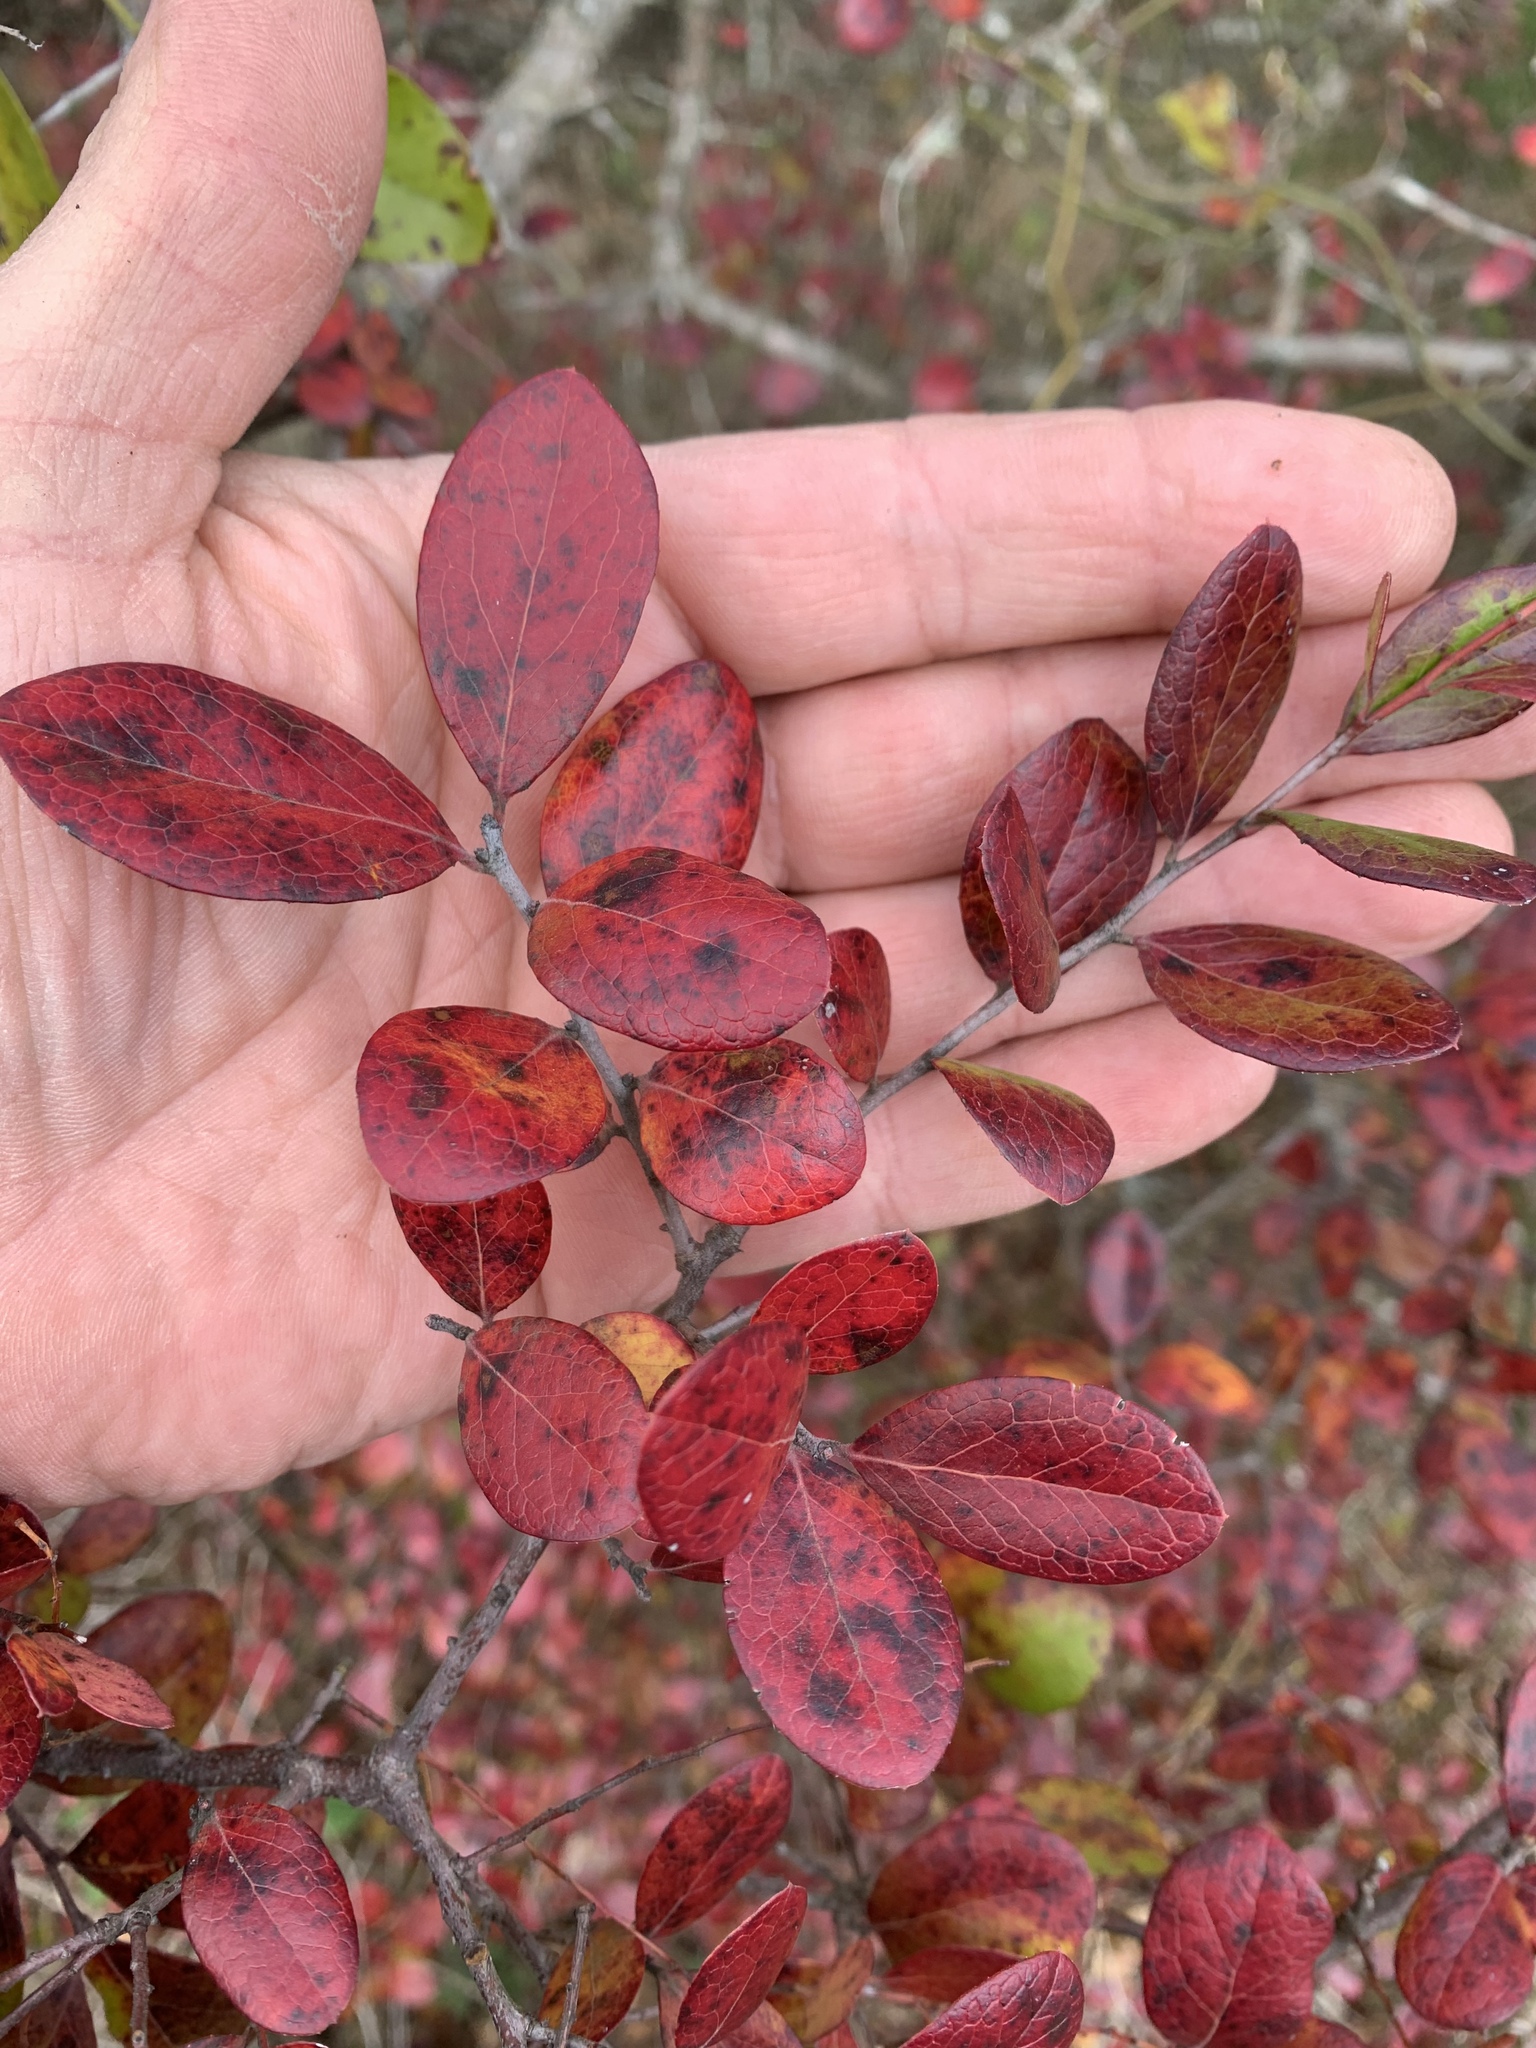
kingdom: Plantae
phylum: Tracheophyta
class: Magnoliopsida
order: Ericales
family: Ericaceae
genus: Vaccinium
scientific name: Vaccinium arboreum
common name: Farkleberry
